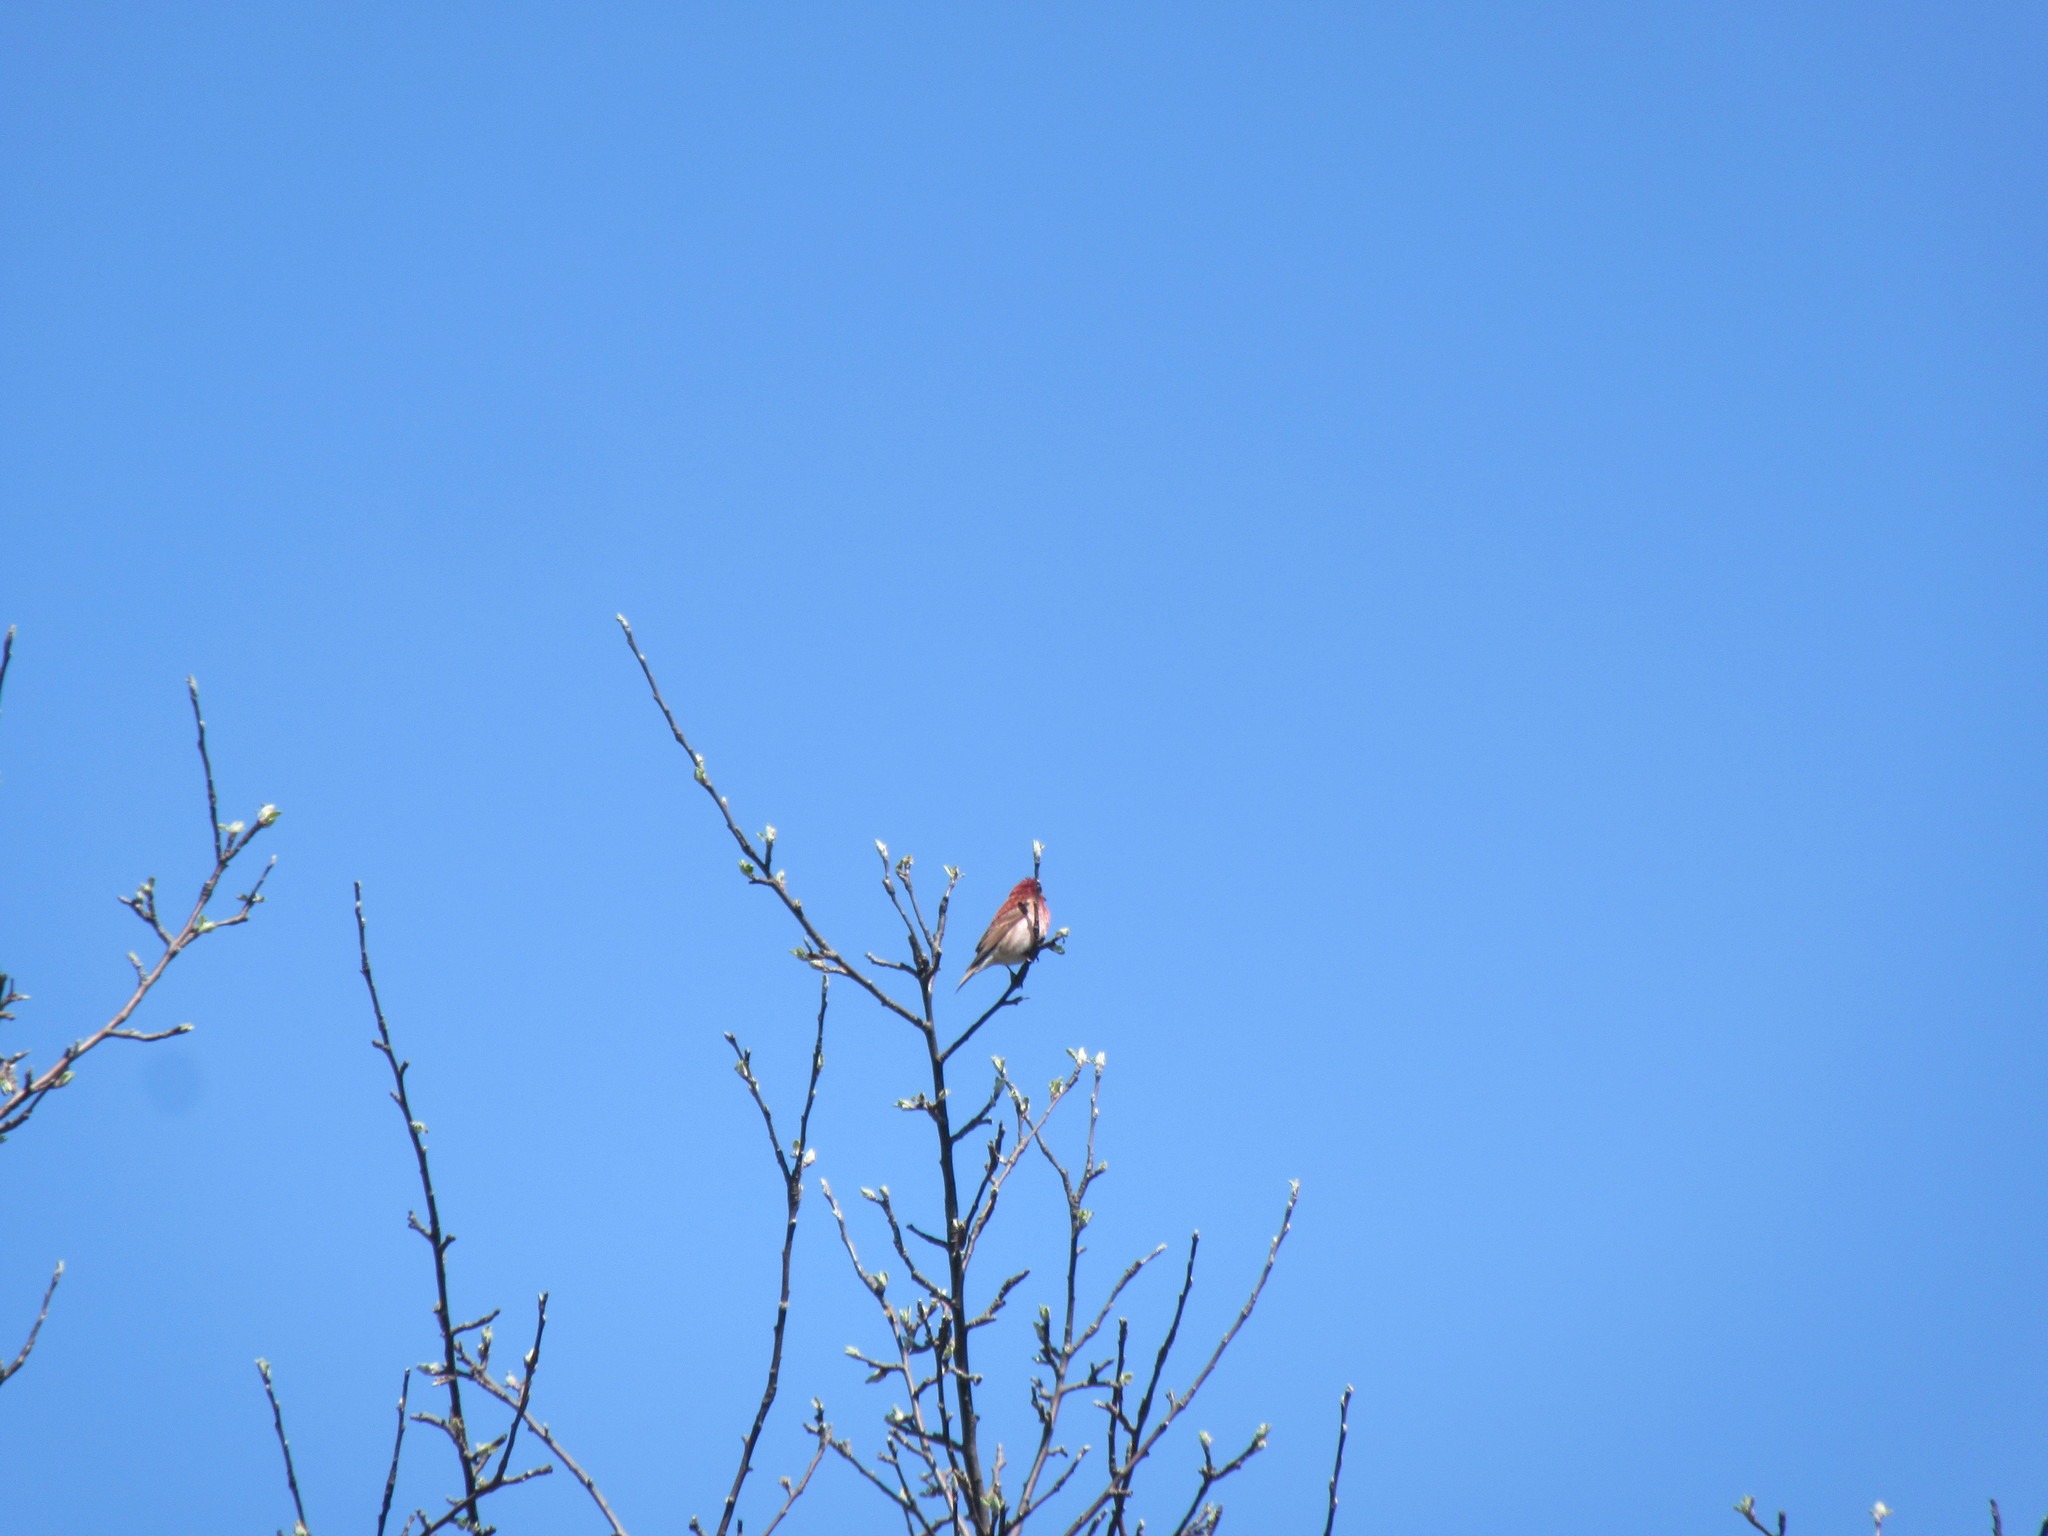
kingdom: Animalia
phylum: Chordata
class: Aves
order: Passeriformes
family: Fringillidae
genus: Haemorhous
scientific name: Haemorhous purpureus
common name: Purple finch
